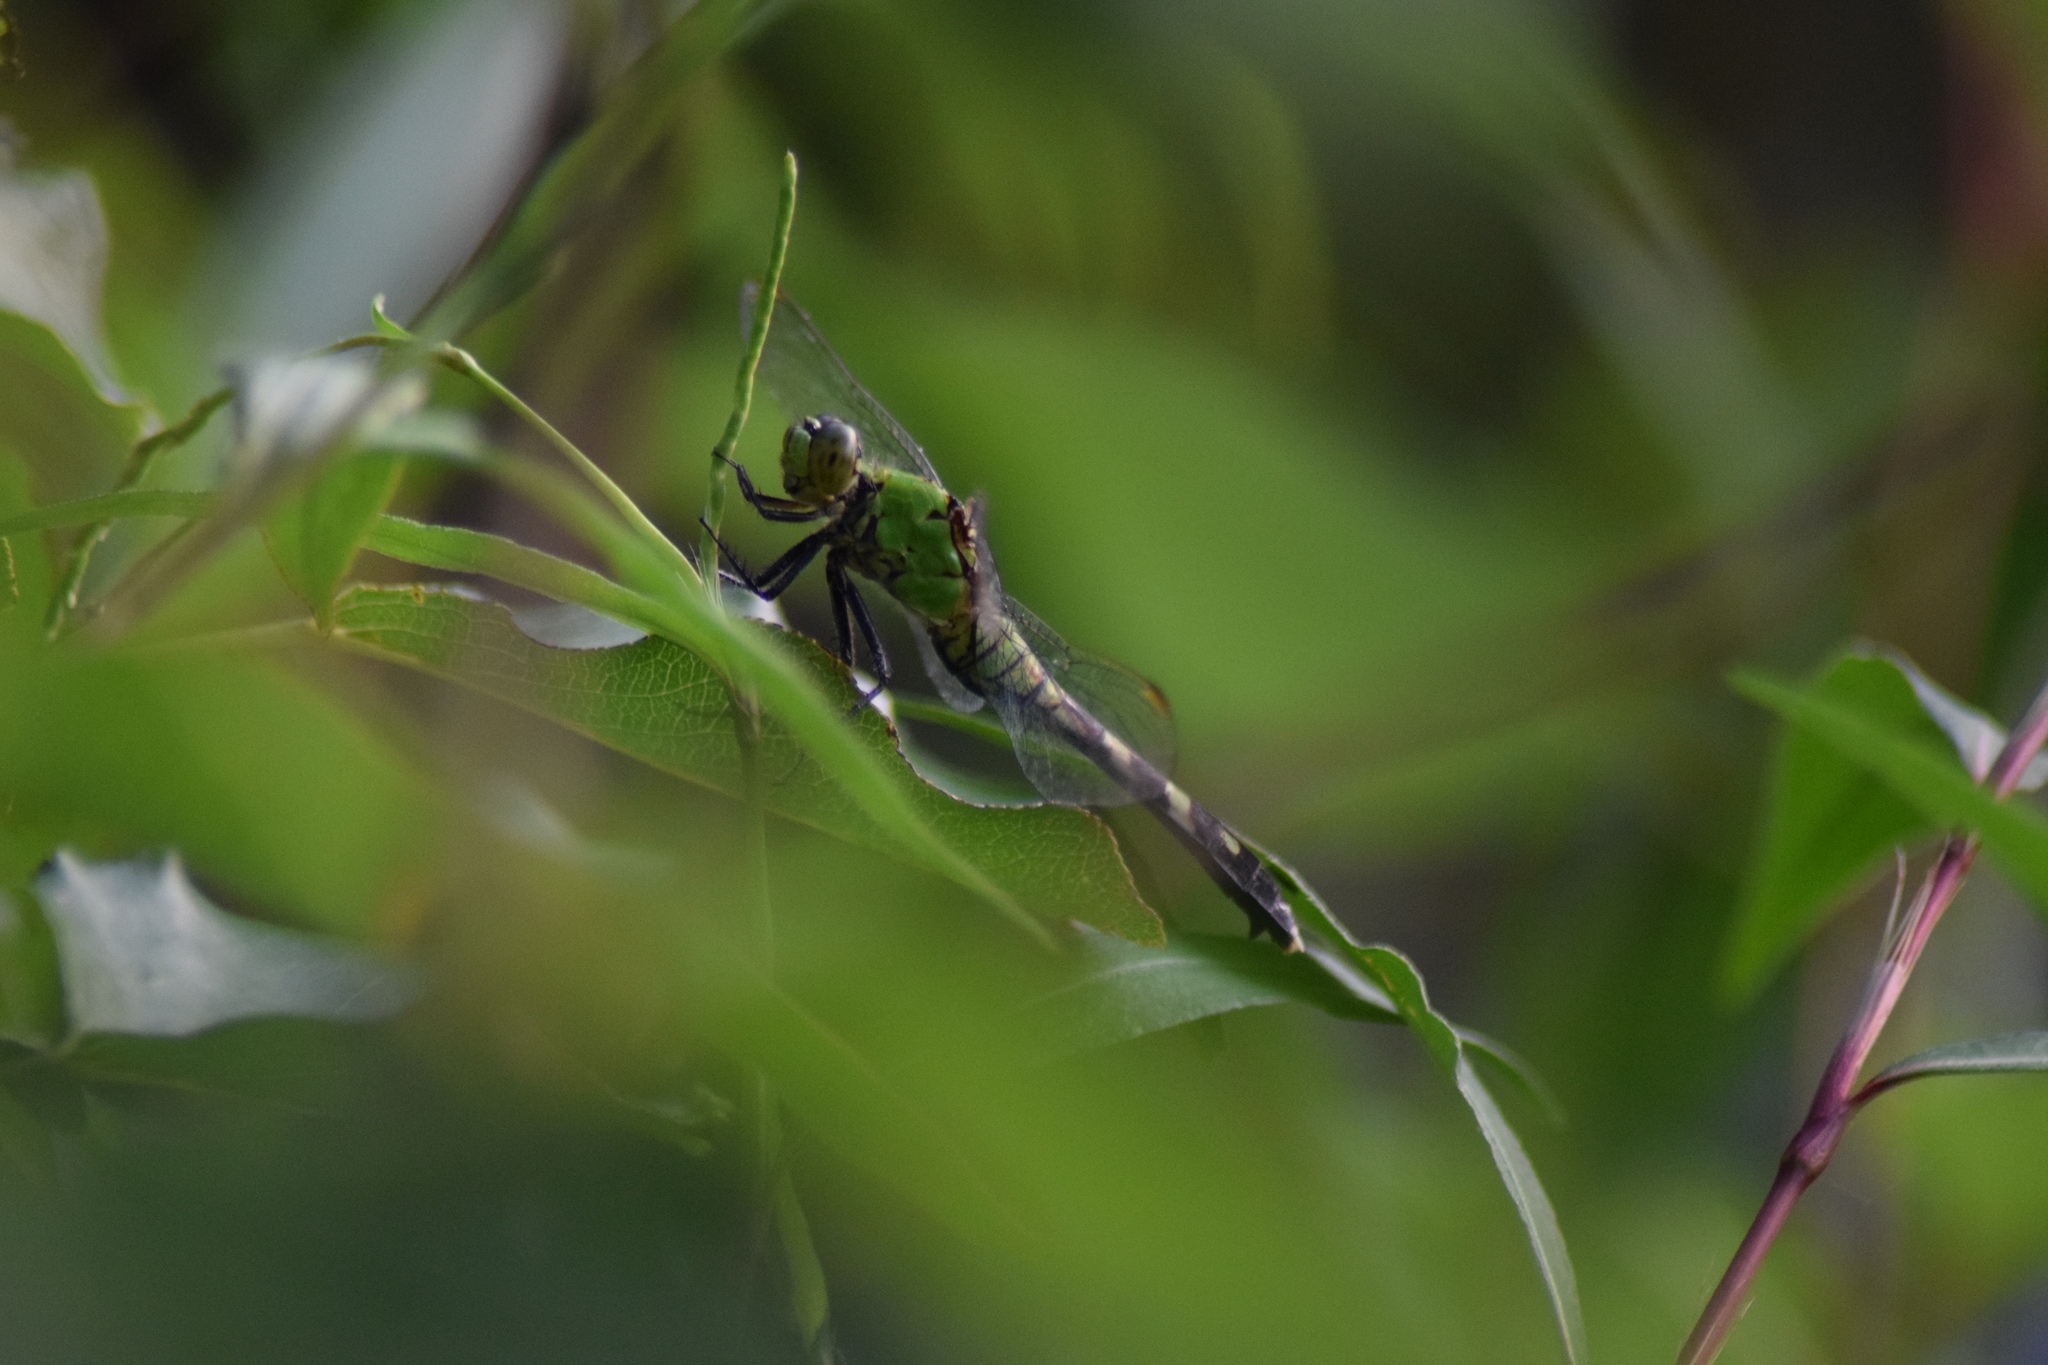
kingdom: Animalia
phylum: Arthropoda
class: Insecta
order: Odonata
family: Libellulidae
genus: Erythemis
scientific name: Erythemis simplicicollis
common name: Eastern pondhawk
